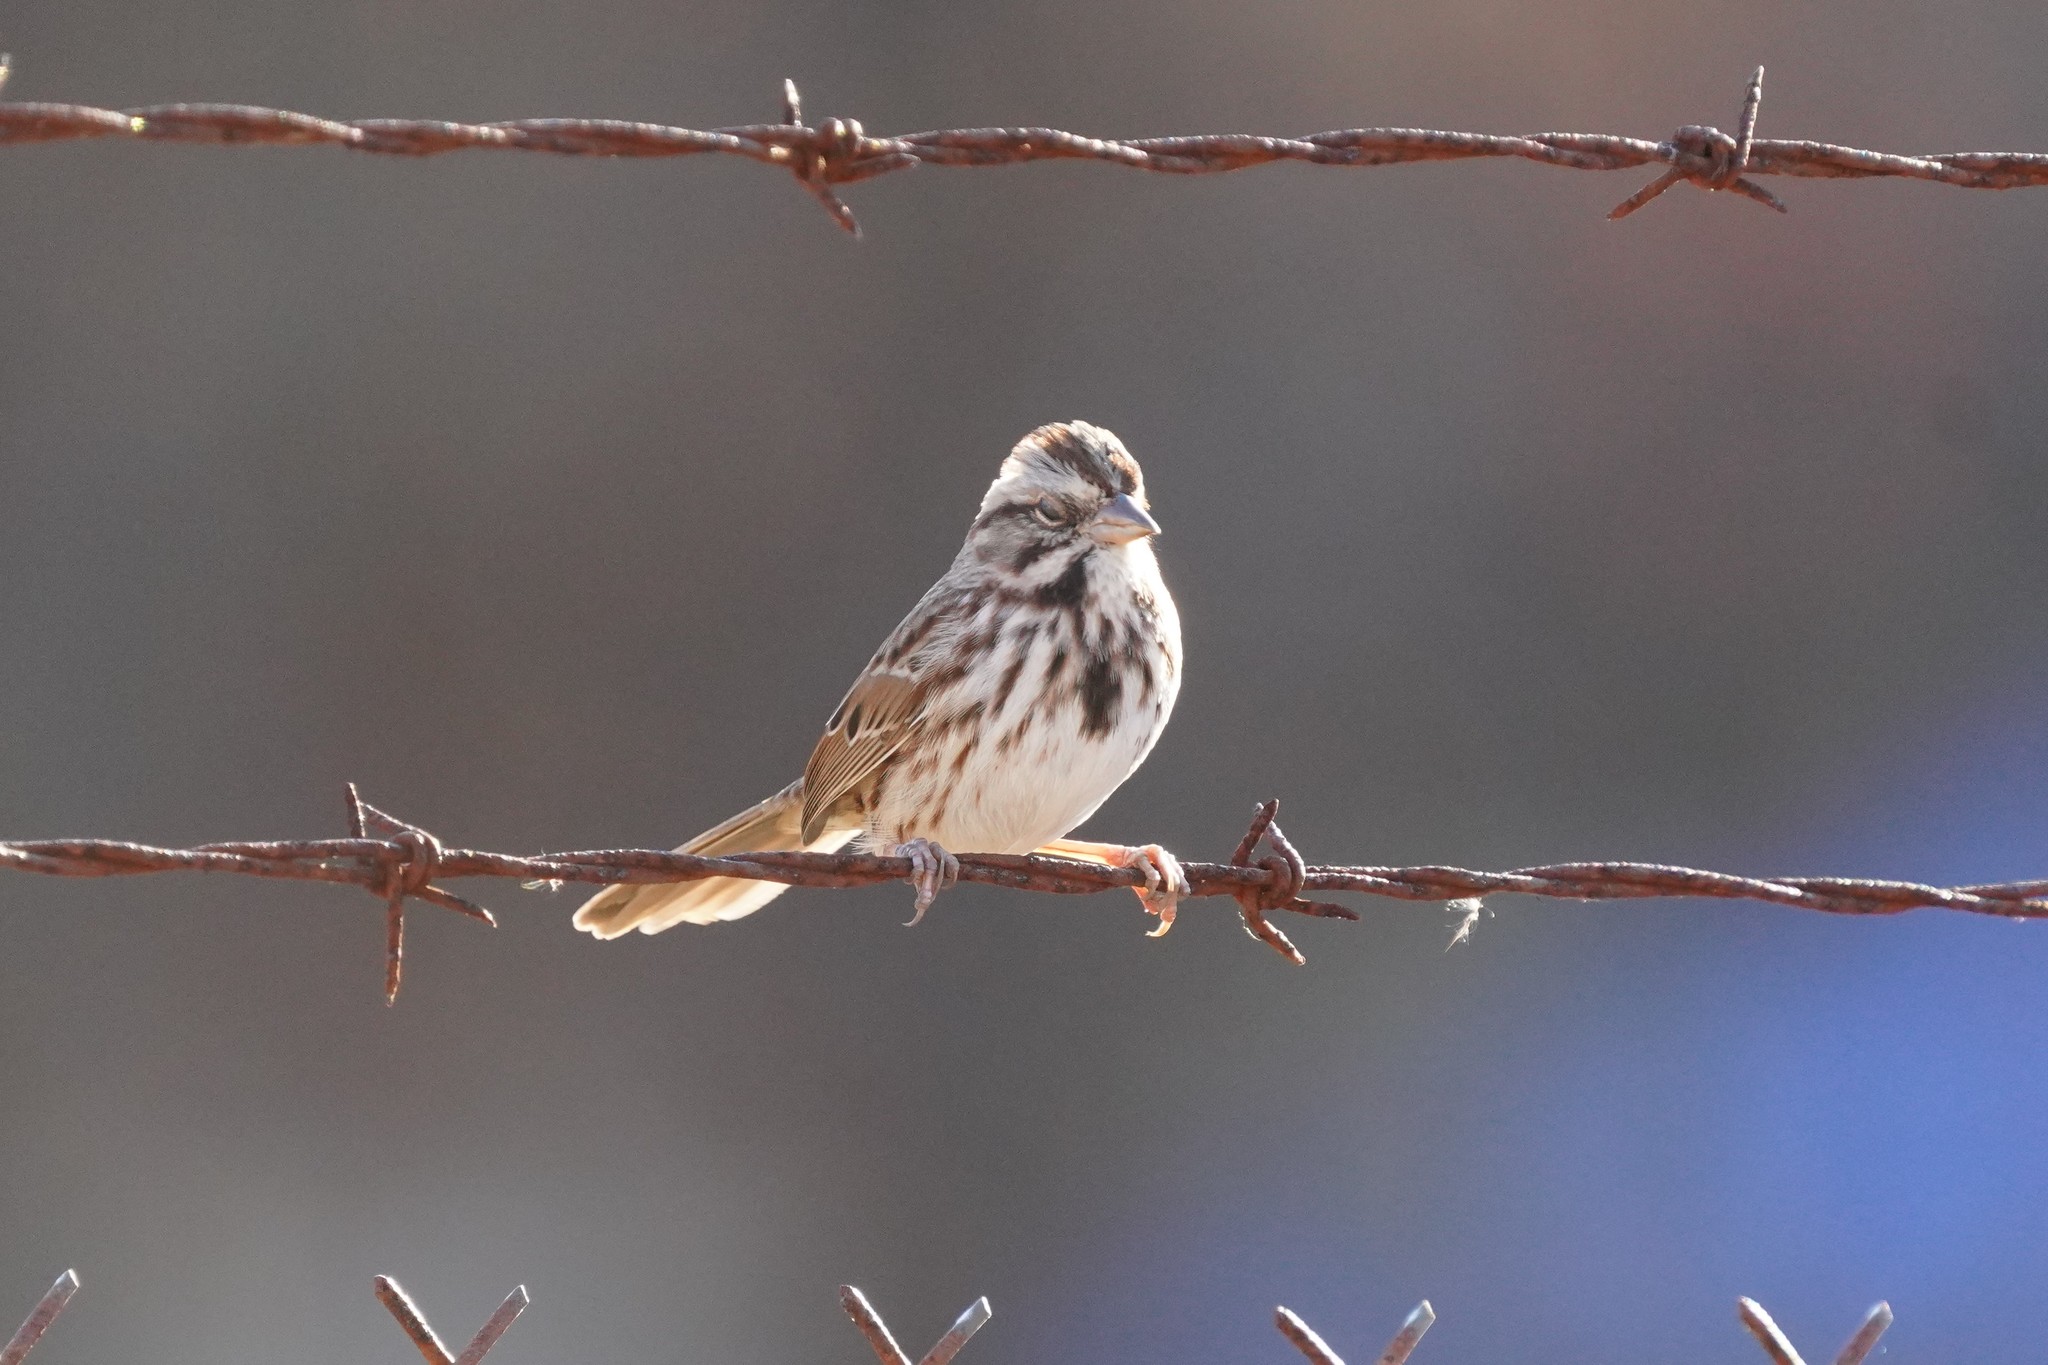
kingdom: Animalia
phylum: Chordata
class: Aves
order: Passeriformes
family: Passerellidae
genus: Melospiza
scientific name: Melospiza melodia
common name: Song sparrow
